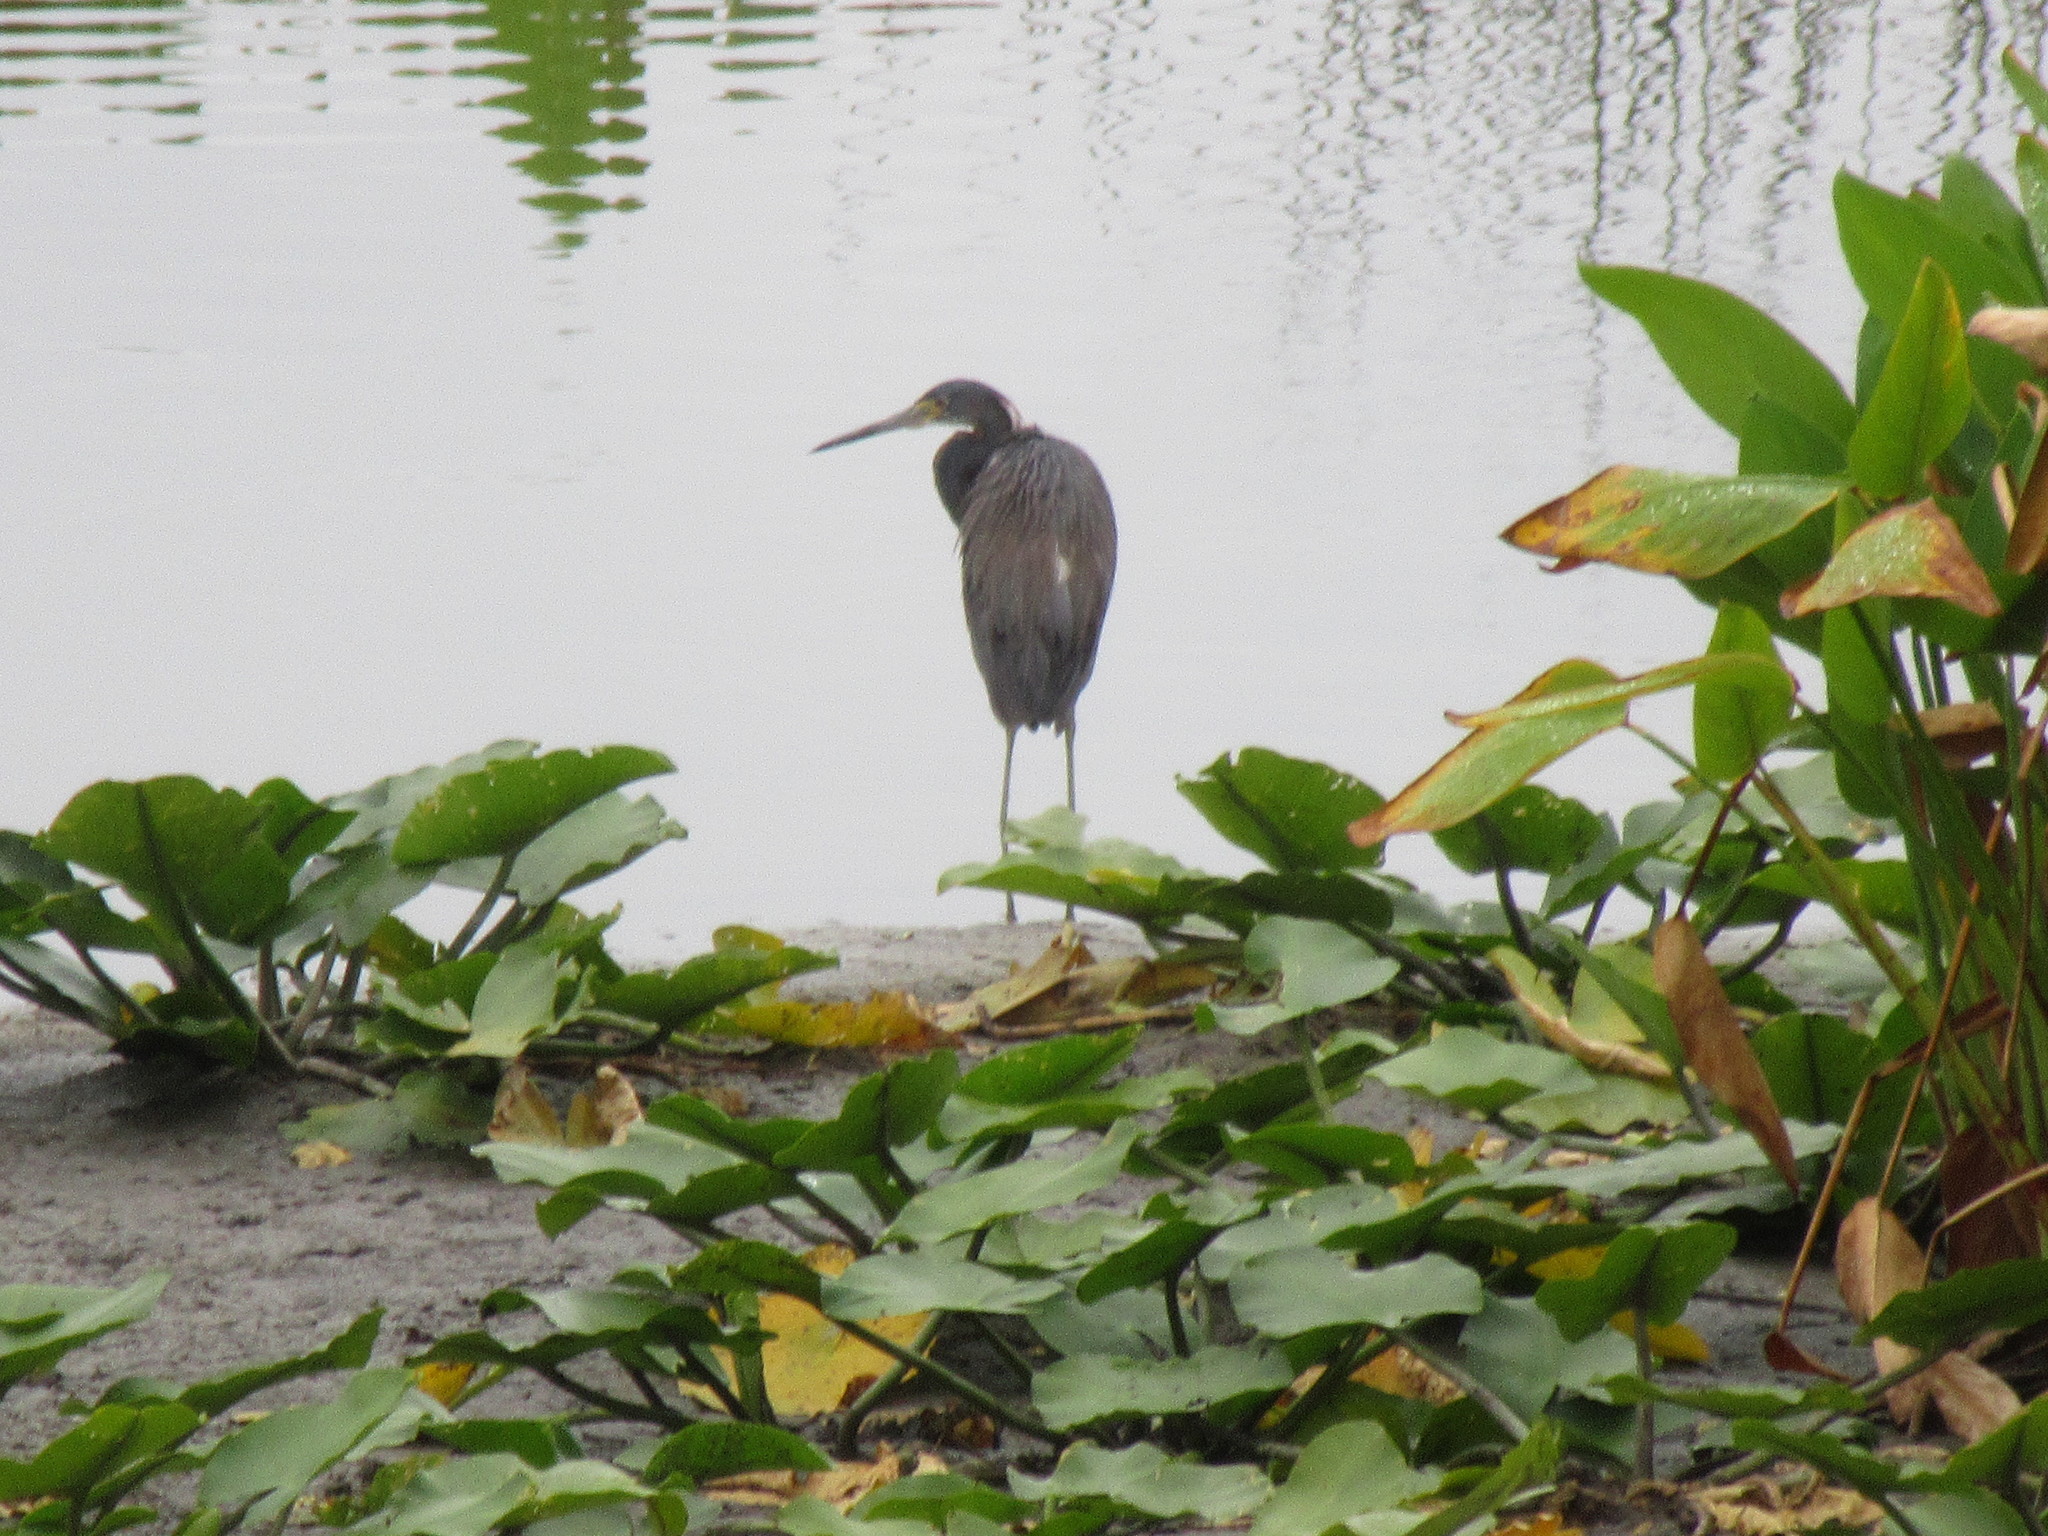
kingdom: Animalia
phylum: Chordata
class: Aves
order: Pelecaniformes
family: Ardeidae
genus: Egretta
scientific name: Egretta tricolor
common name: Tricolored heron
